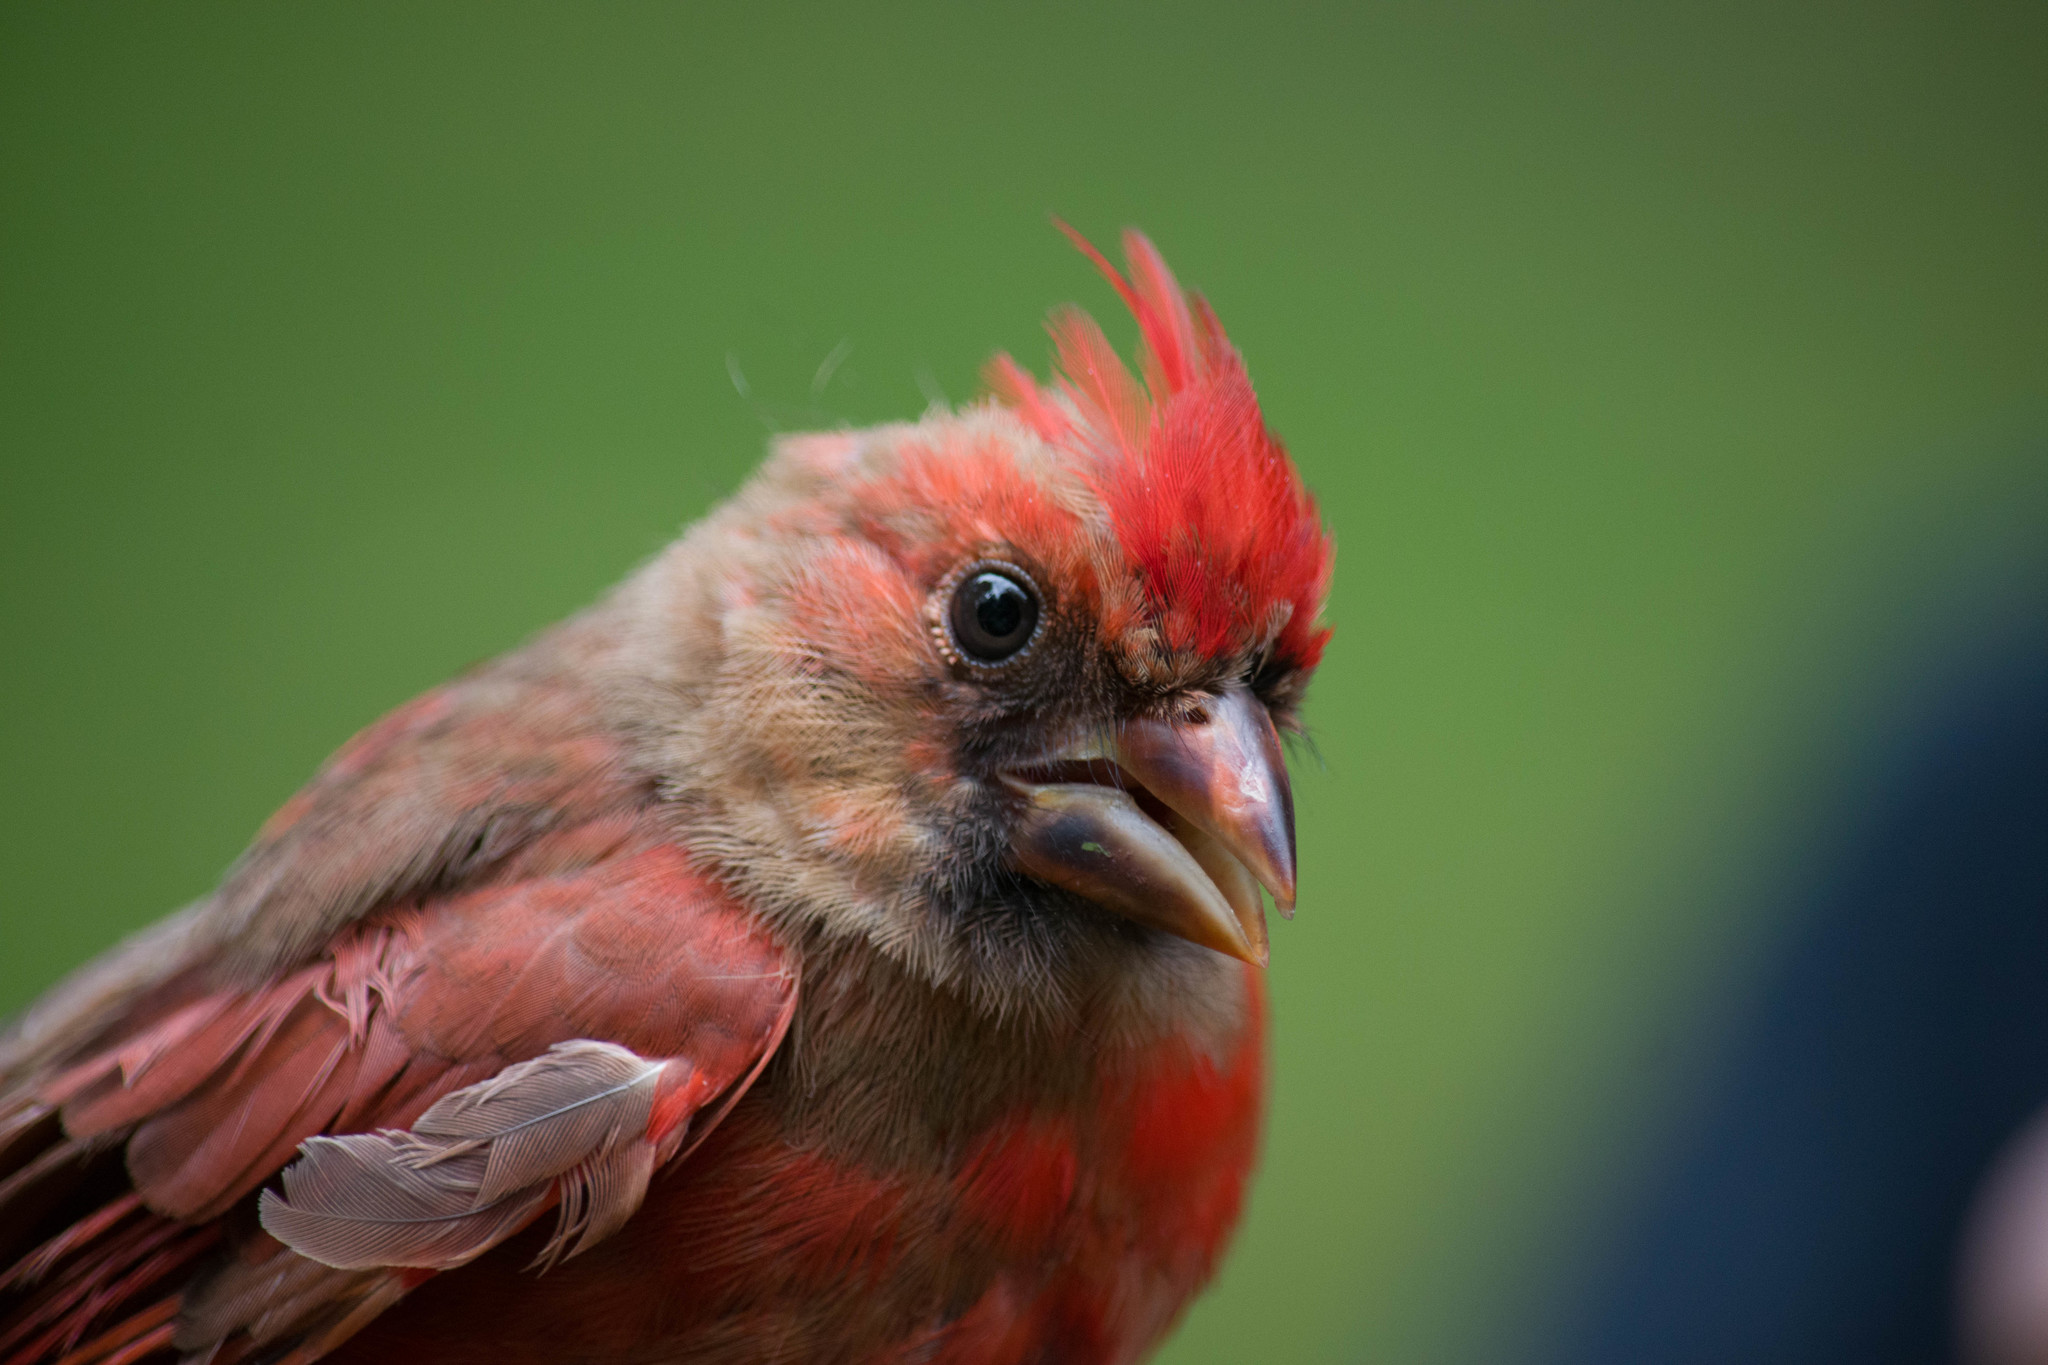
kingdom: Animalia
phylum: Chordata
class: Aves
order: Passeriformes
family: Cardinalidae
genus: Cardinalis
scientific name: Cardinalis cardinalis
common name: Northern cardinal
